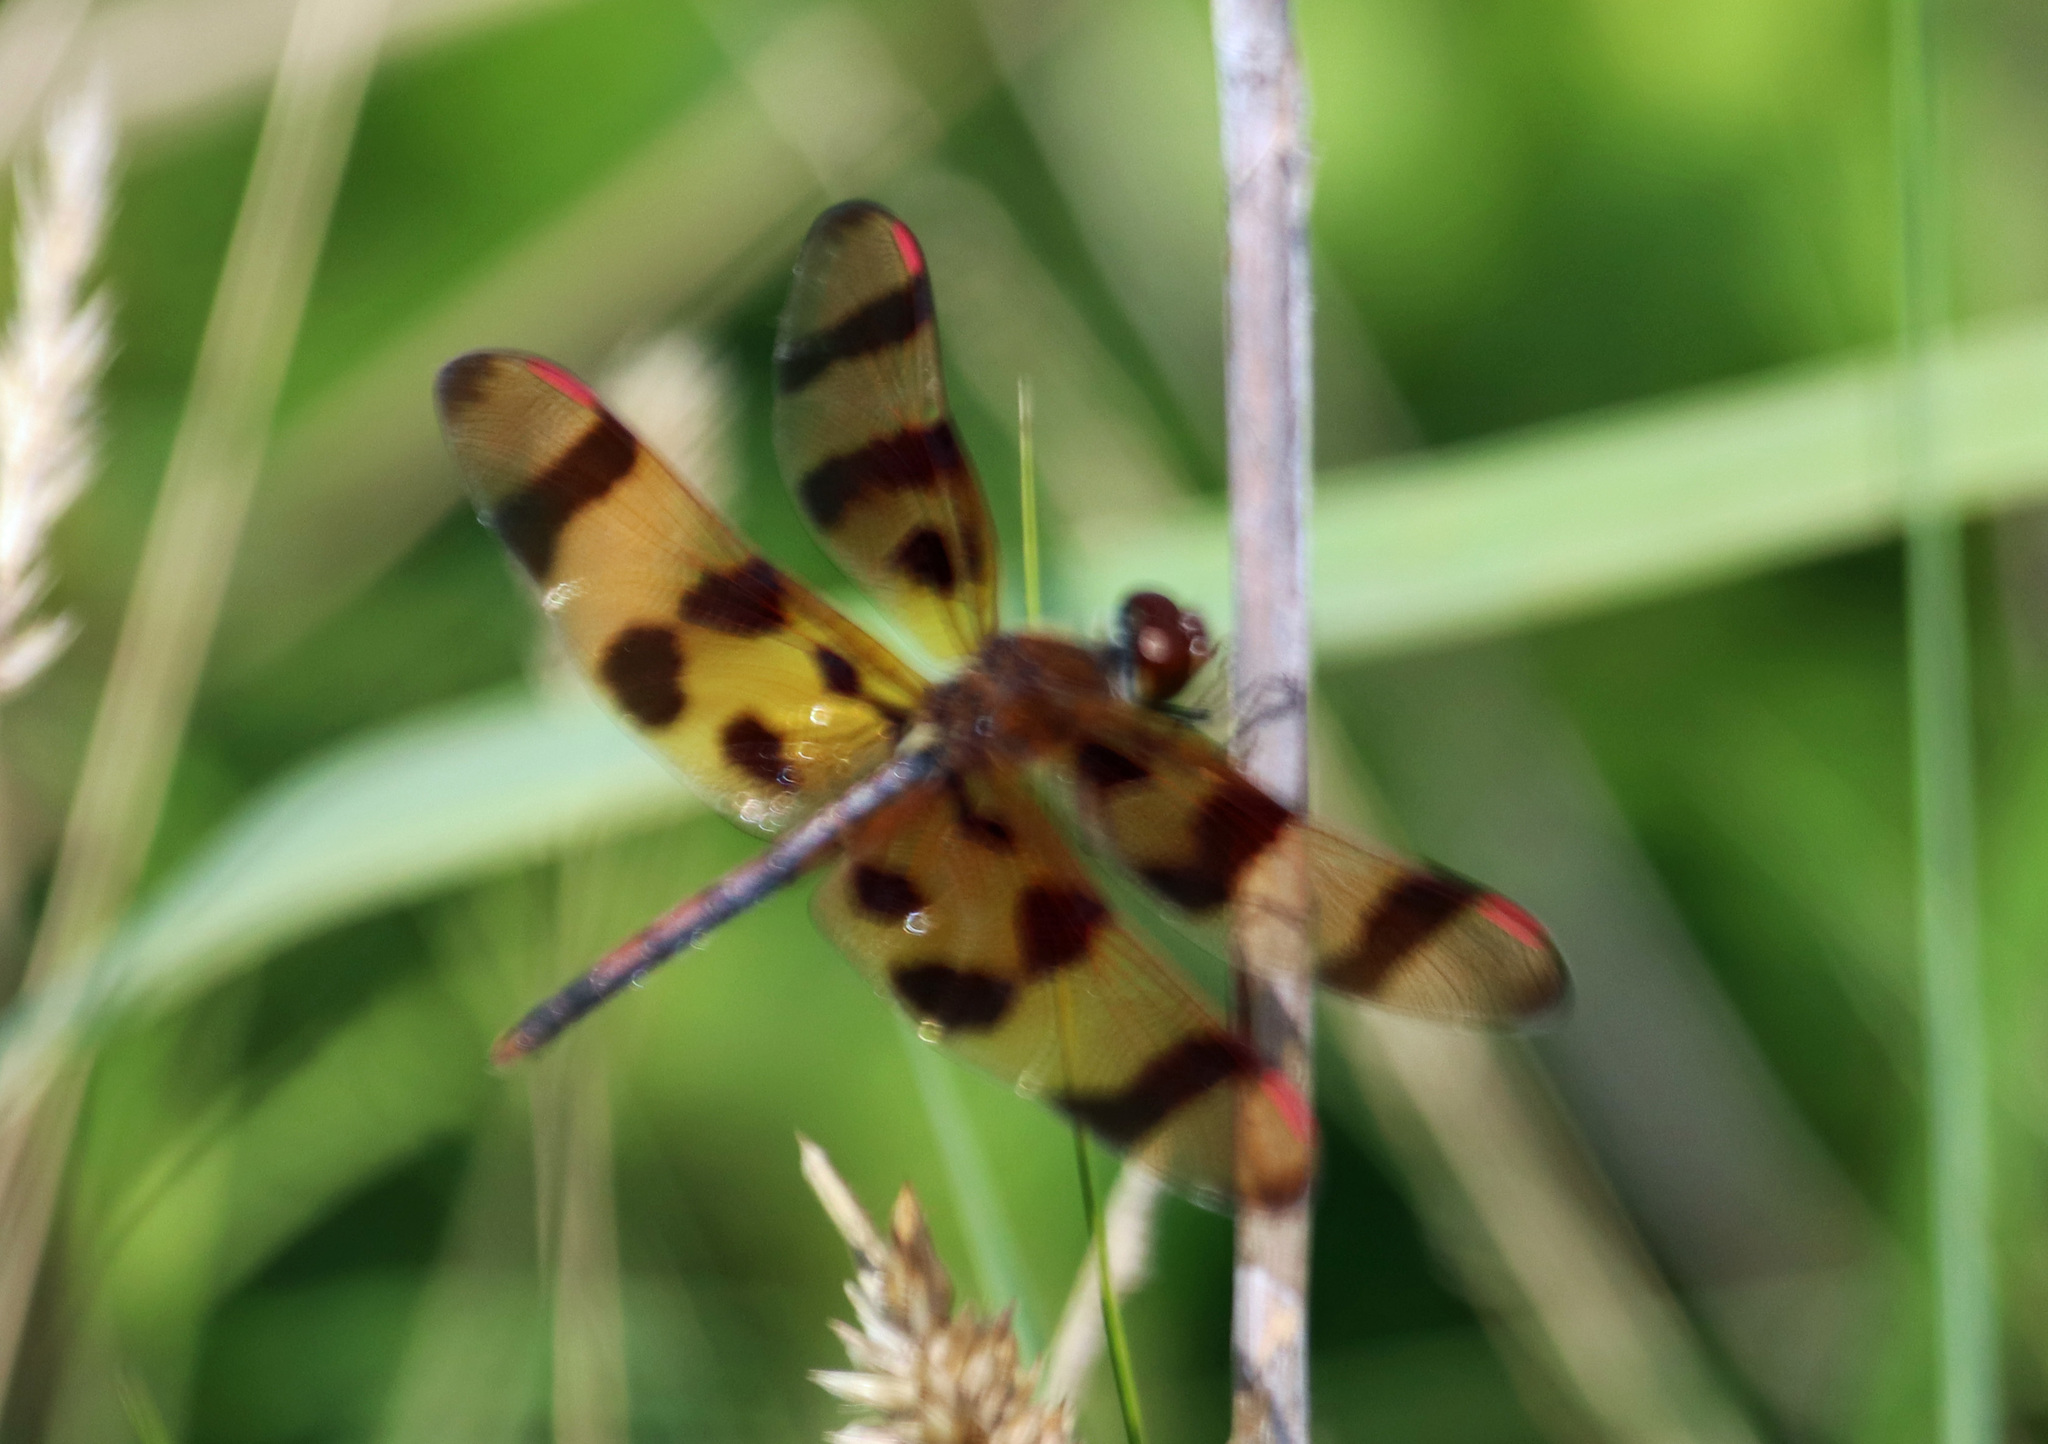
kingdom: Animalia
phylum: Arthropoda
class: Insecta
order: Odonata
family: Libellulidae
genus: Celithemis
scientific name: Celithemis eponina
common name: Halloween pennant
